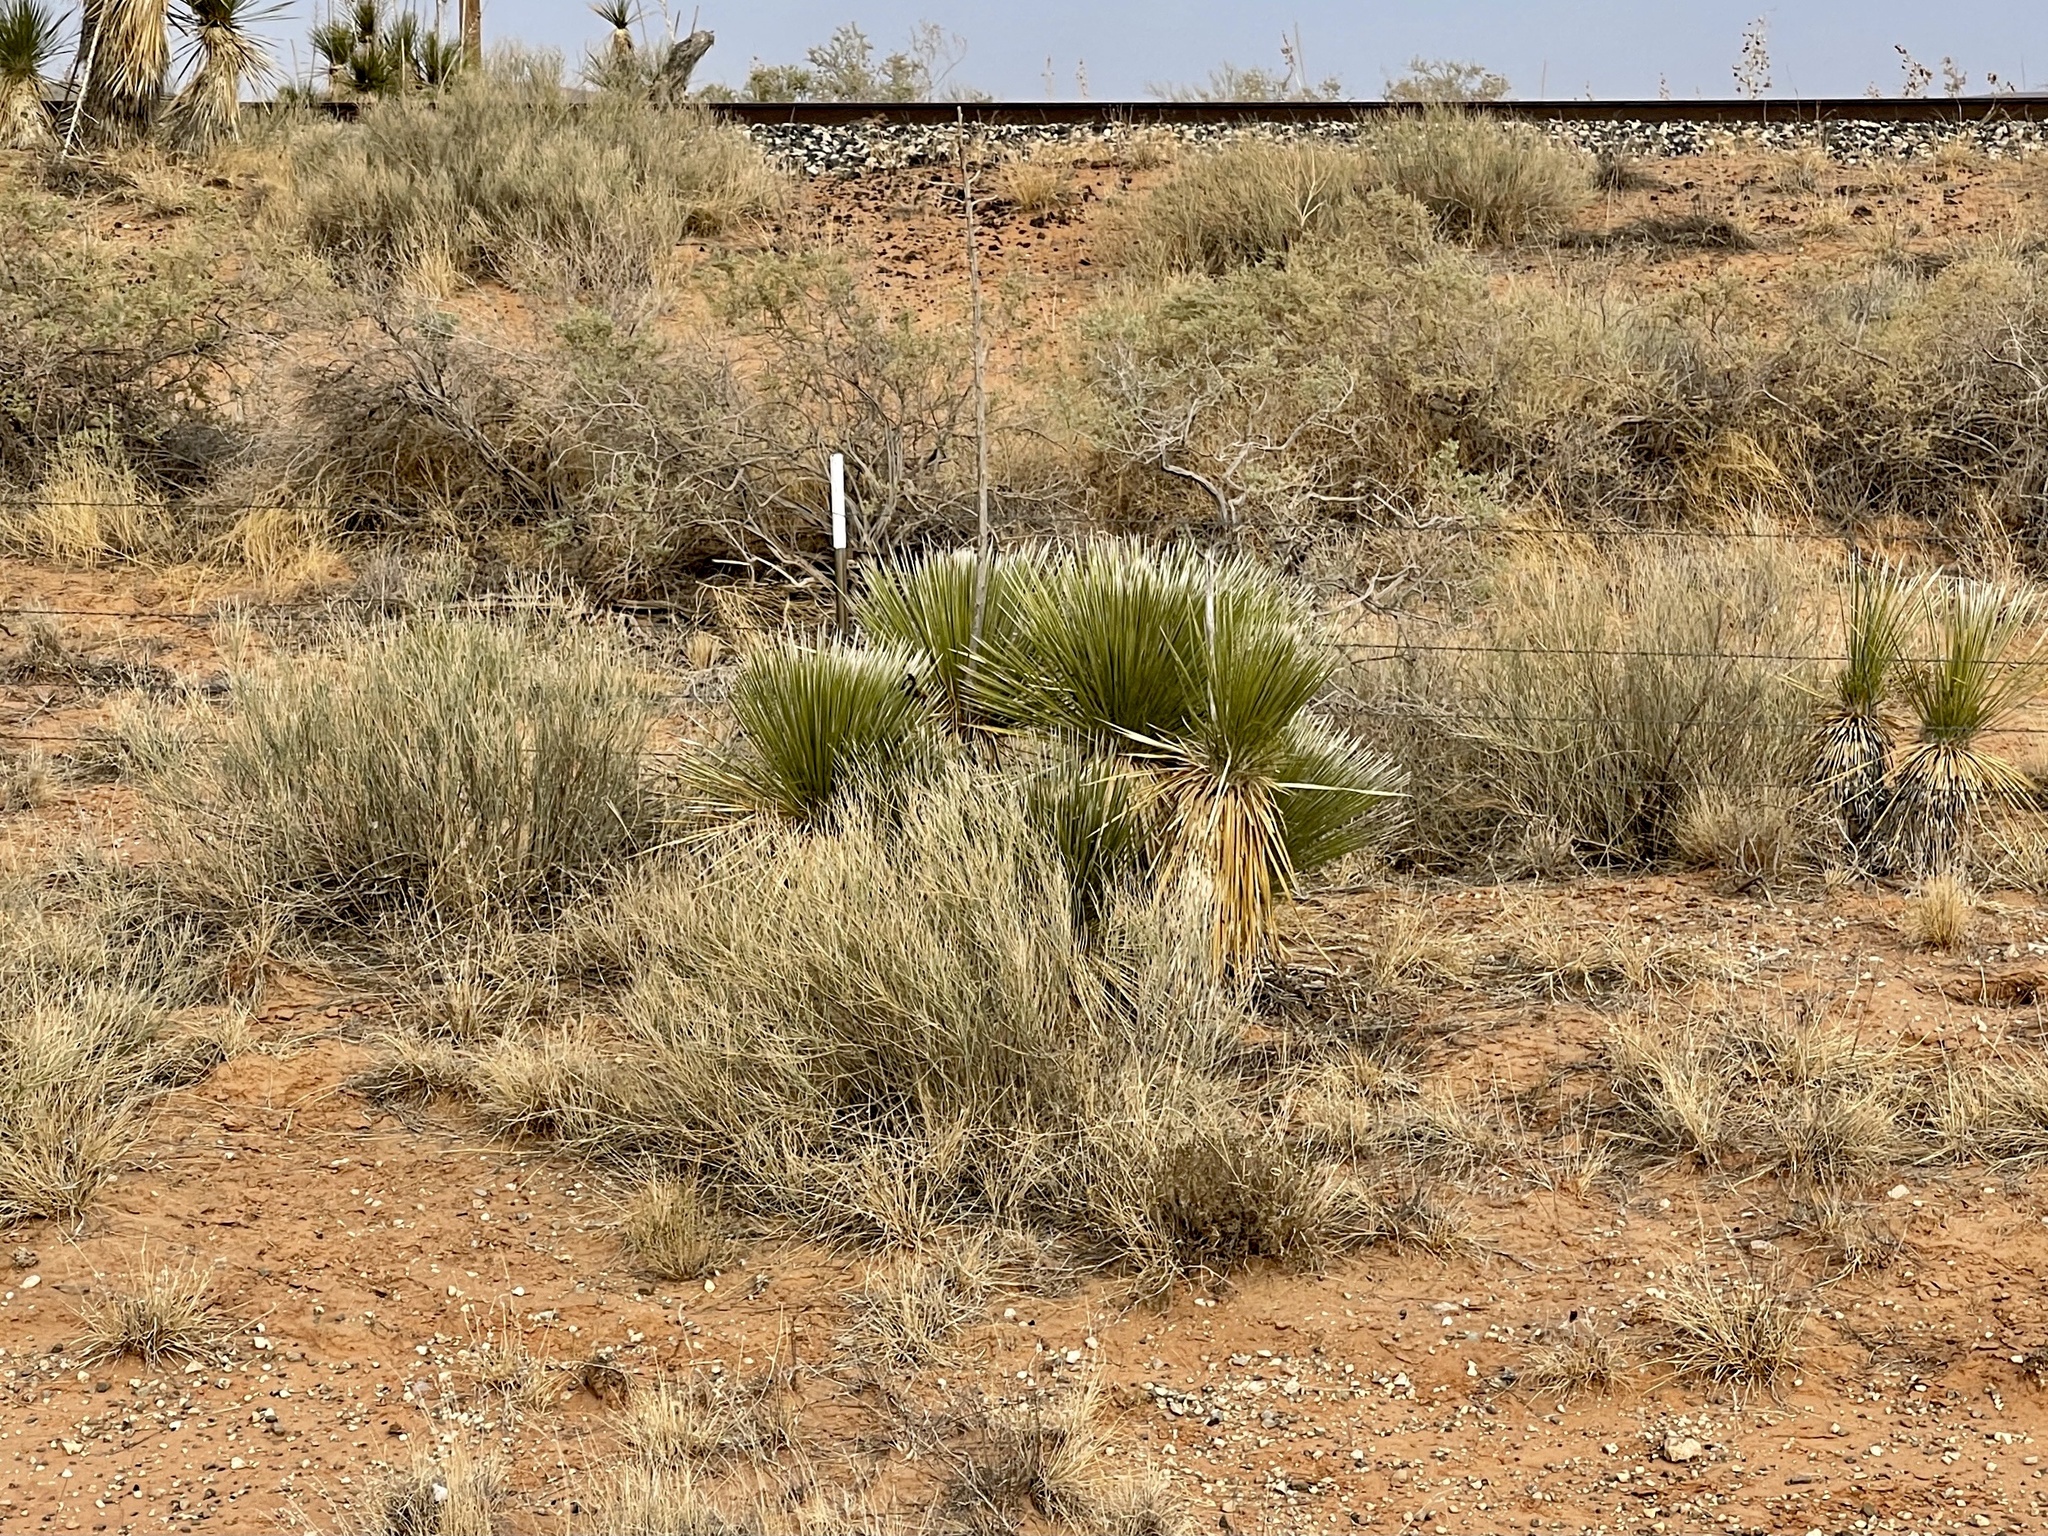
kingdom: Plantae
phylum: Tracheophyta
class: Liliopsida
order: Asparagales
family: Asparagaceae
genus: Yucca
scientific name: Yucca elata
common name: Palmella
